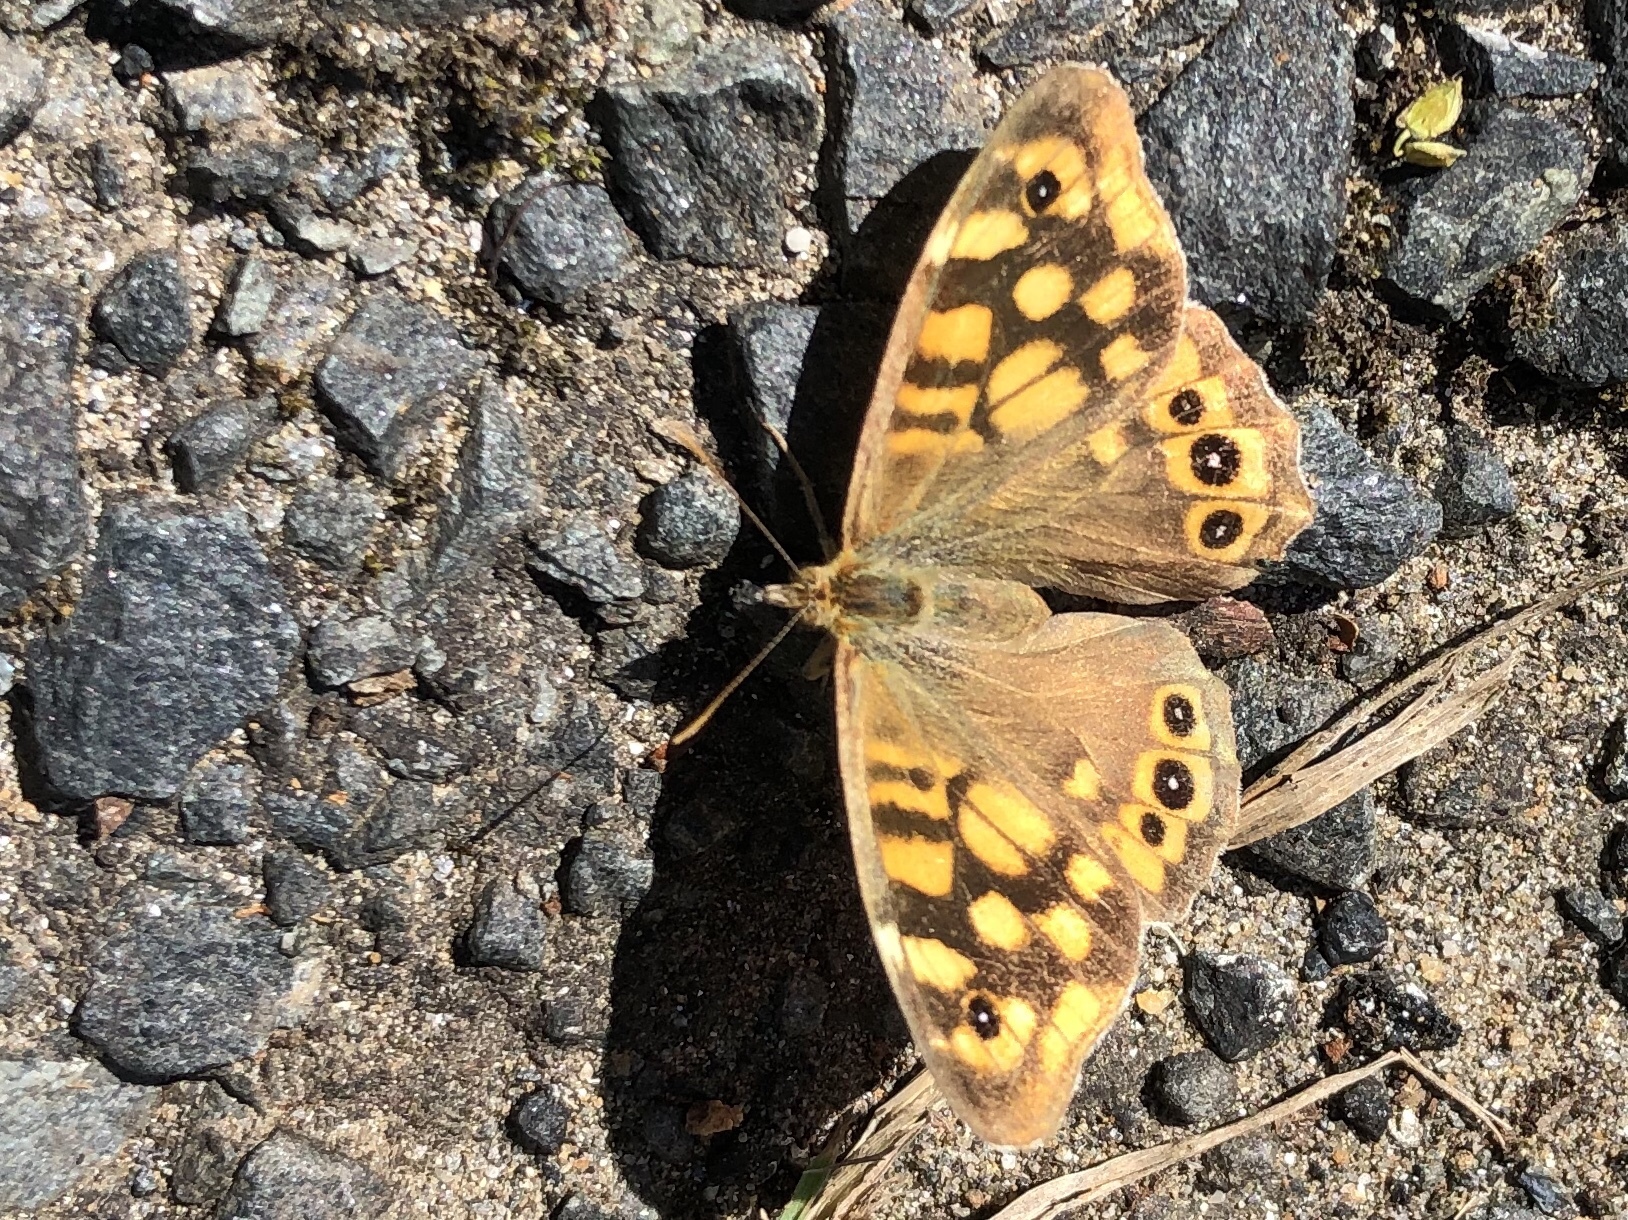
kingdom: Animalia
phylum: Arthropoda
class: Insecta
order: Lepidoptera
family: Nymphalidae
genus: Pararge
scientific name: Pararge aegeria
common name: Speckled wood
